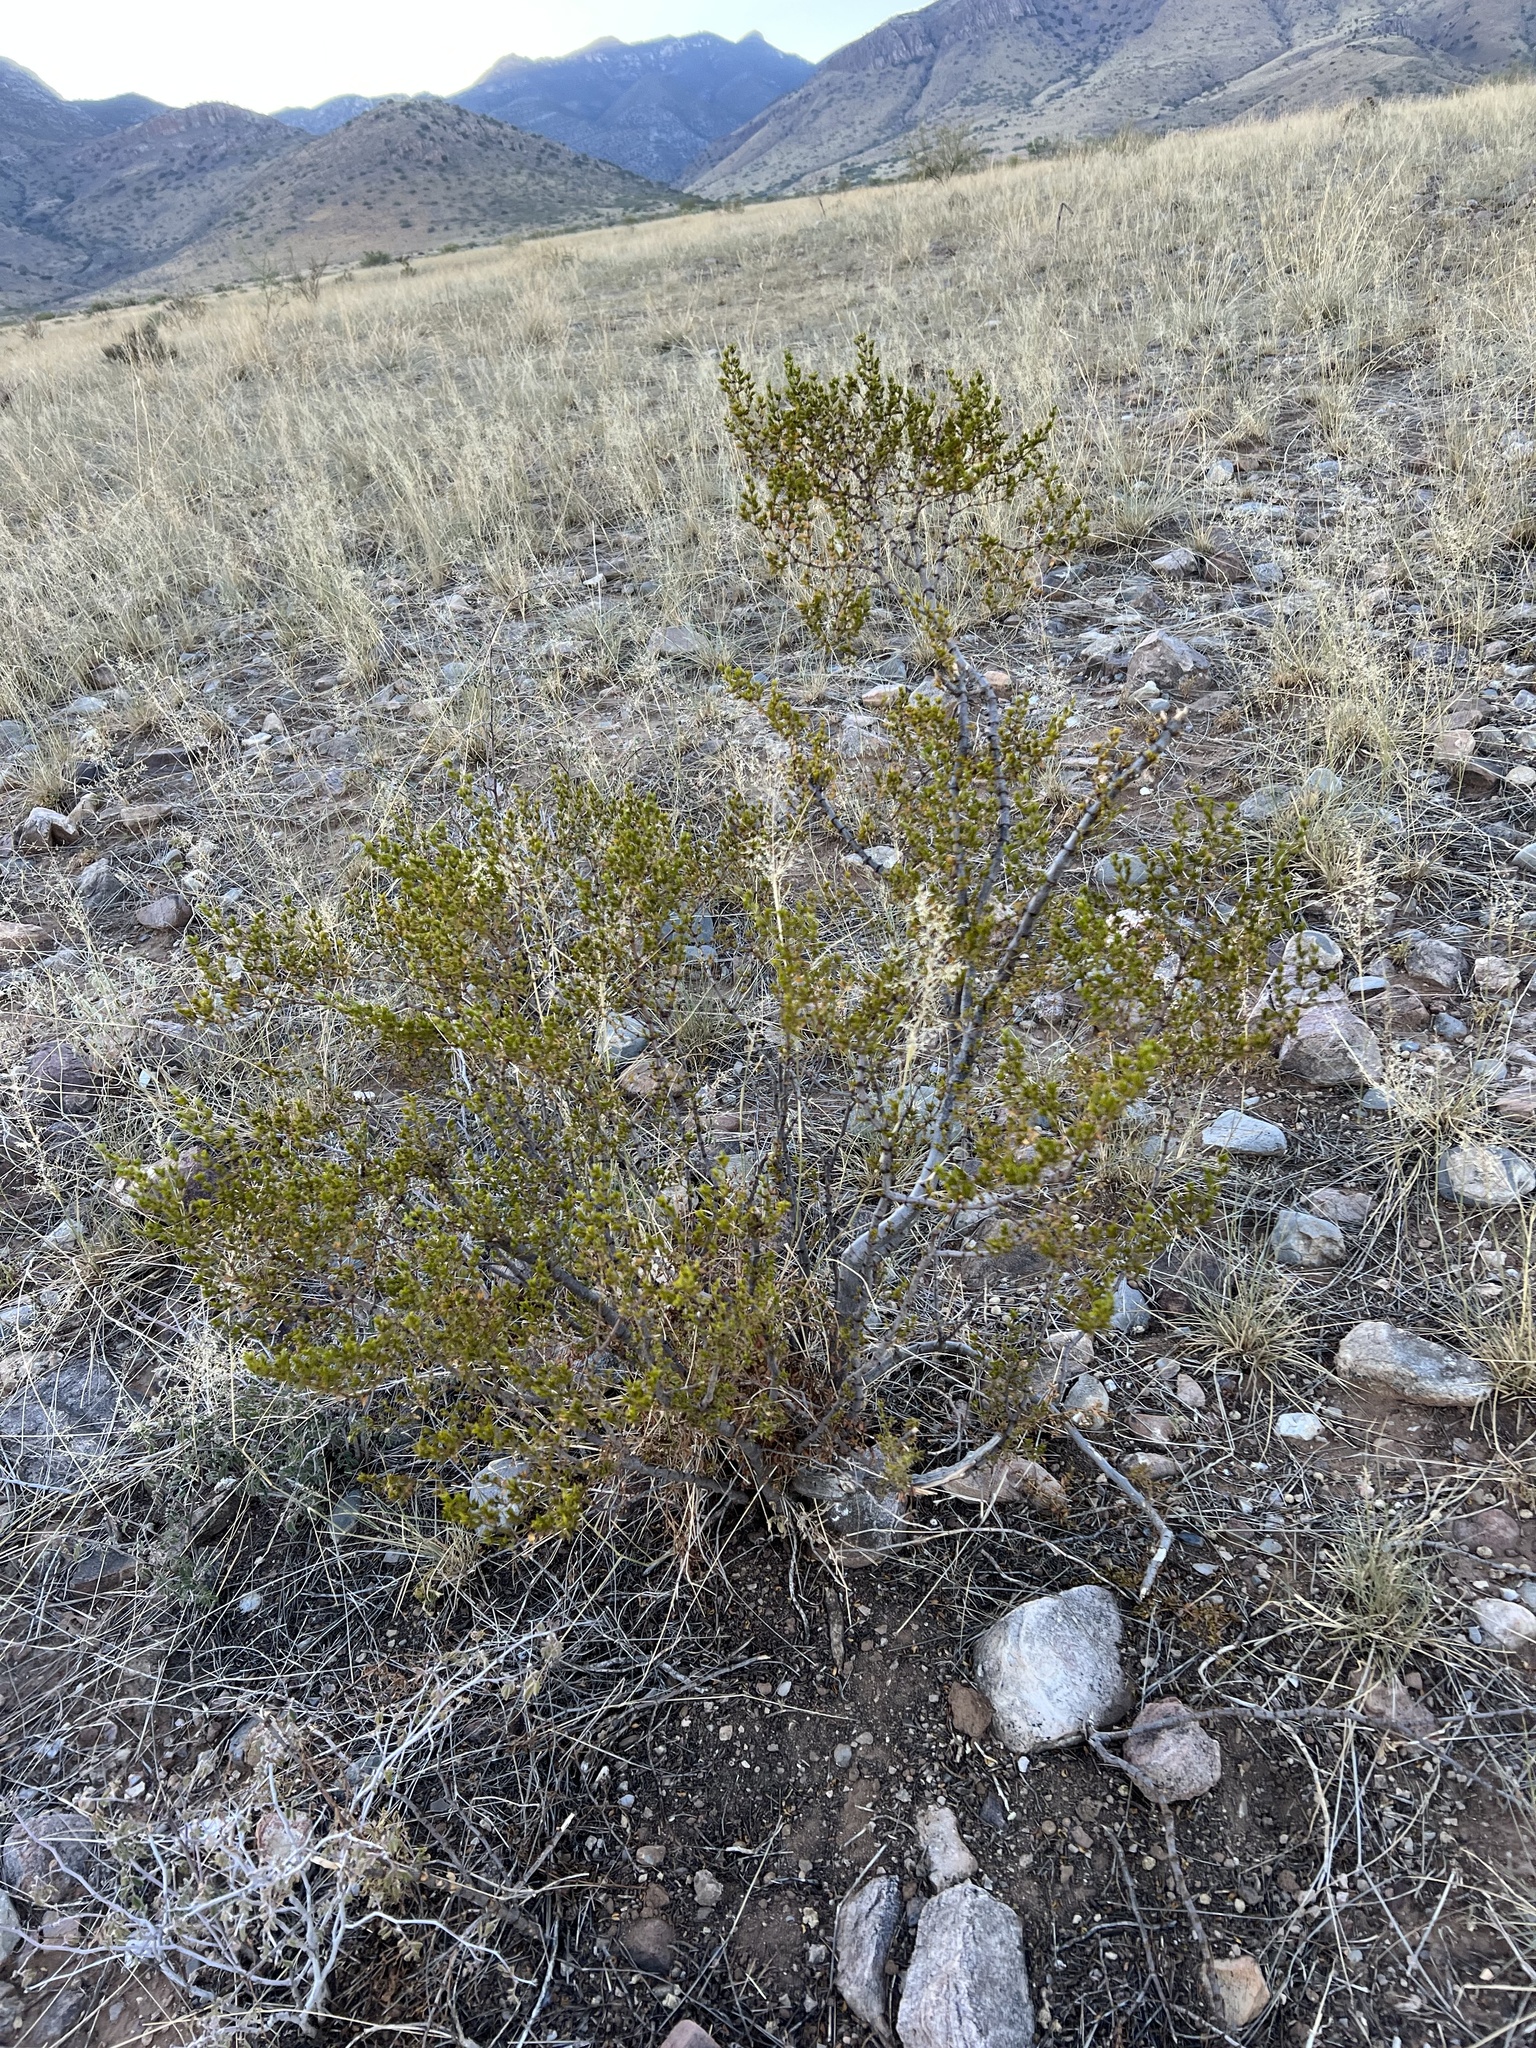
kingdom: Plantae
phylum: Tracheophyta
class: Magnoliopsida
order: Zygophyllales
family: Zygophyllaceae
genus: Larrea
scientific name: Larrea tridentata
